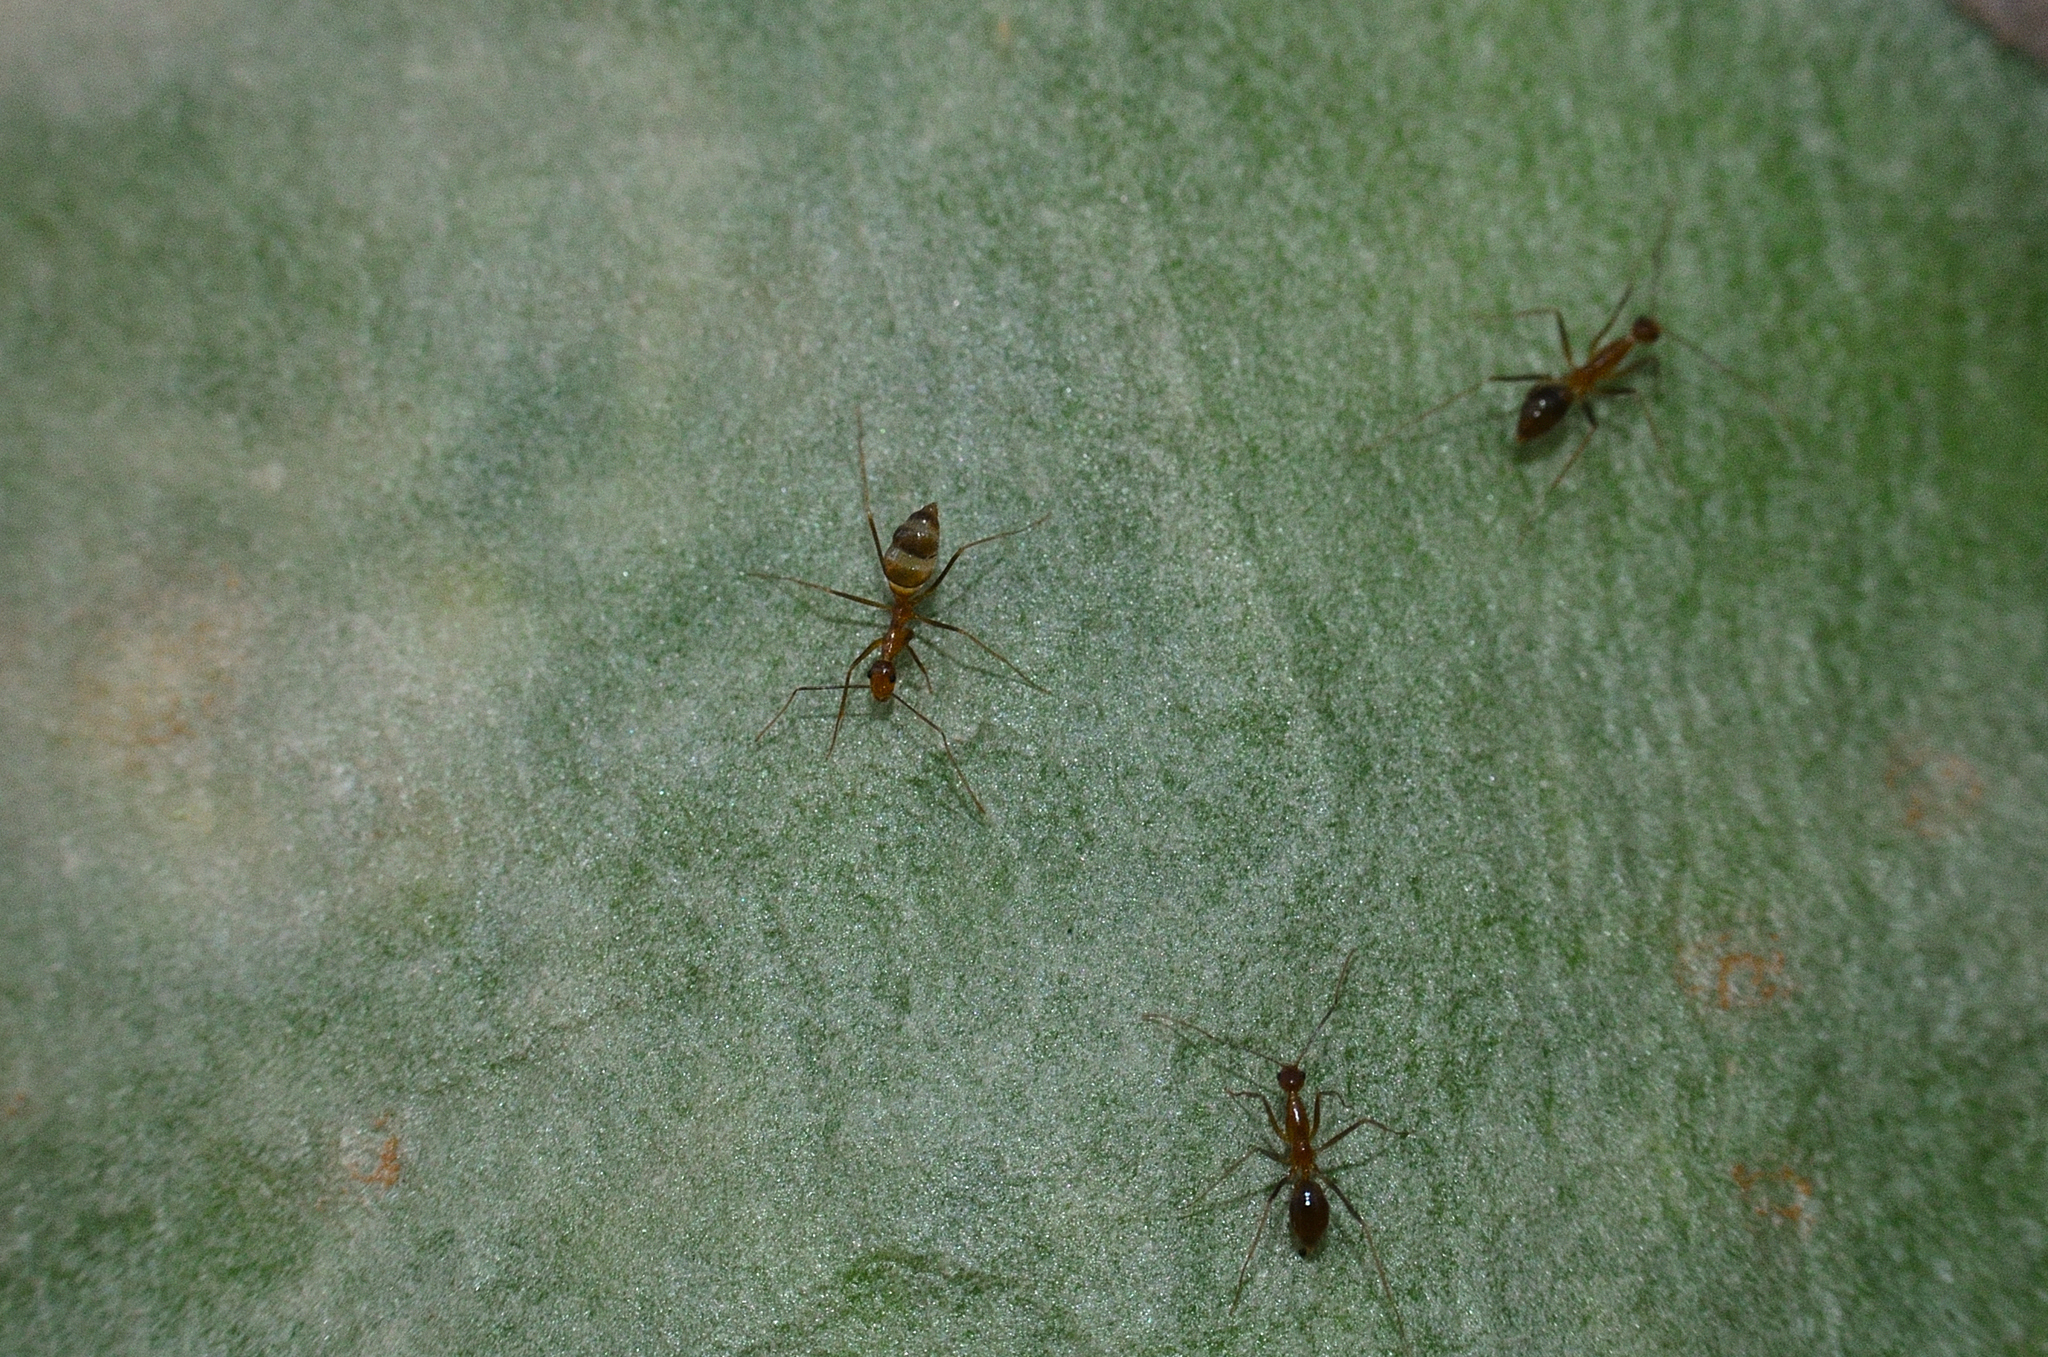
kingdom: Animalia
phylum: Arthropoda
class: Insecta
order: Hymenoptera
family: Formicidae
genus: Anoplolepis
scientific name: Anoplolepis gracilipes
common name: Ant
